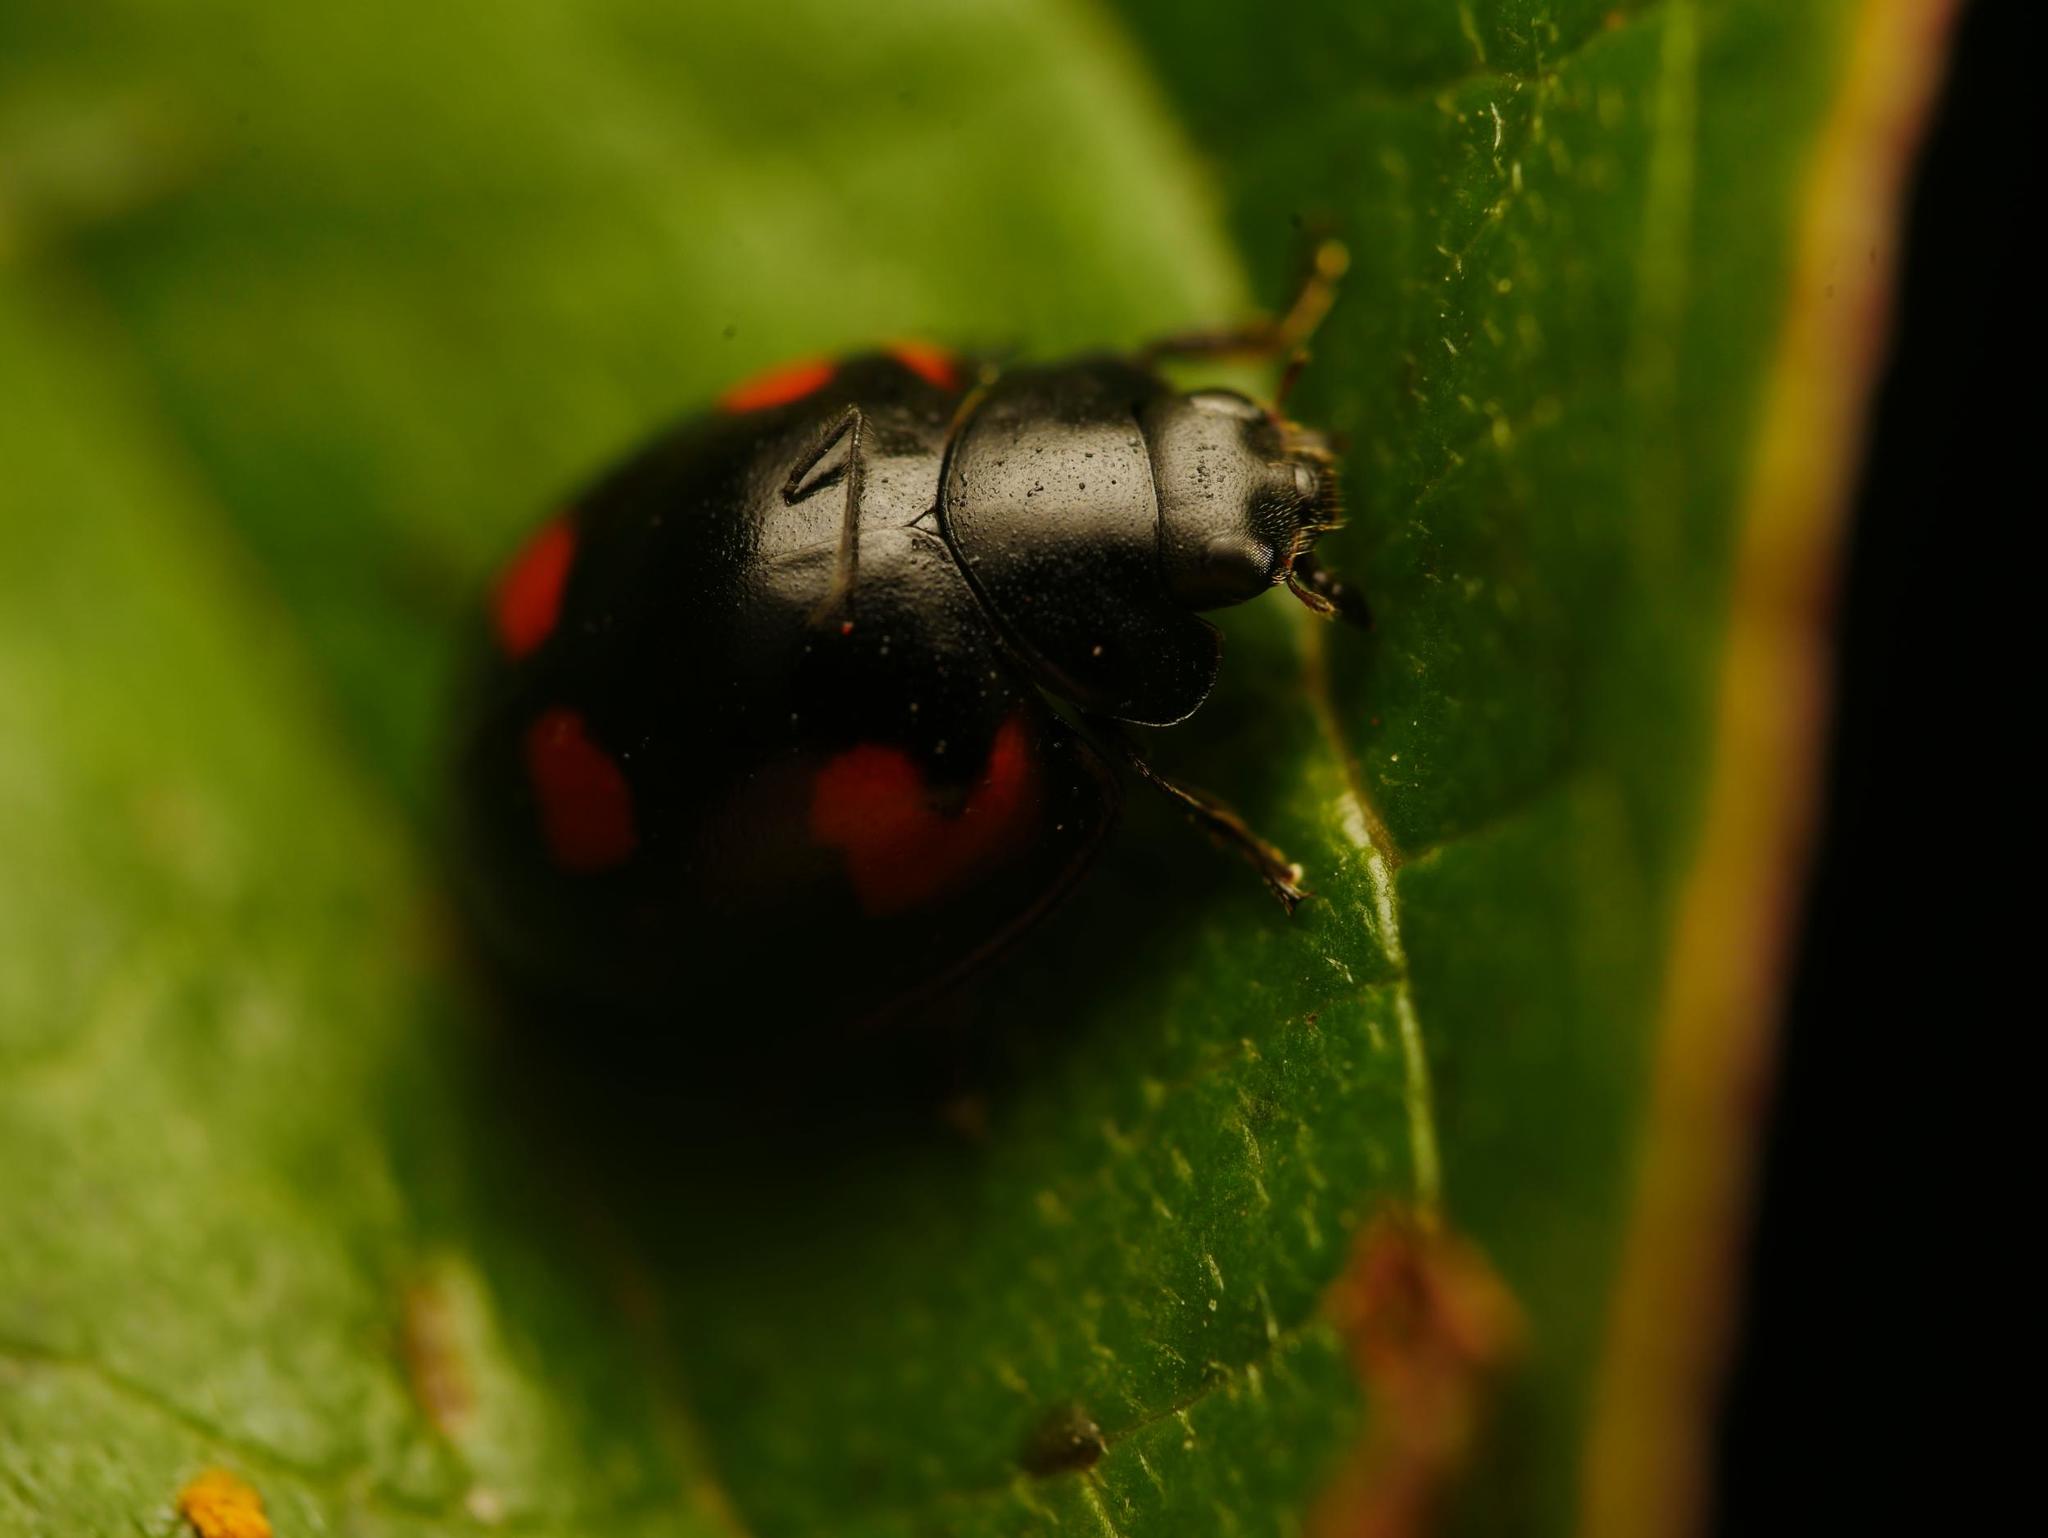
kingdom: Animalia
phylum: Arthropoda
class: Insecta
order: Coleoptera
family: Coccinellidae
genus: Brumus
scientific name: Brumus quadripustulatus
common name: Ladybird beetle
